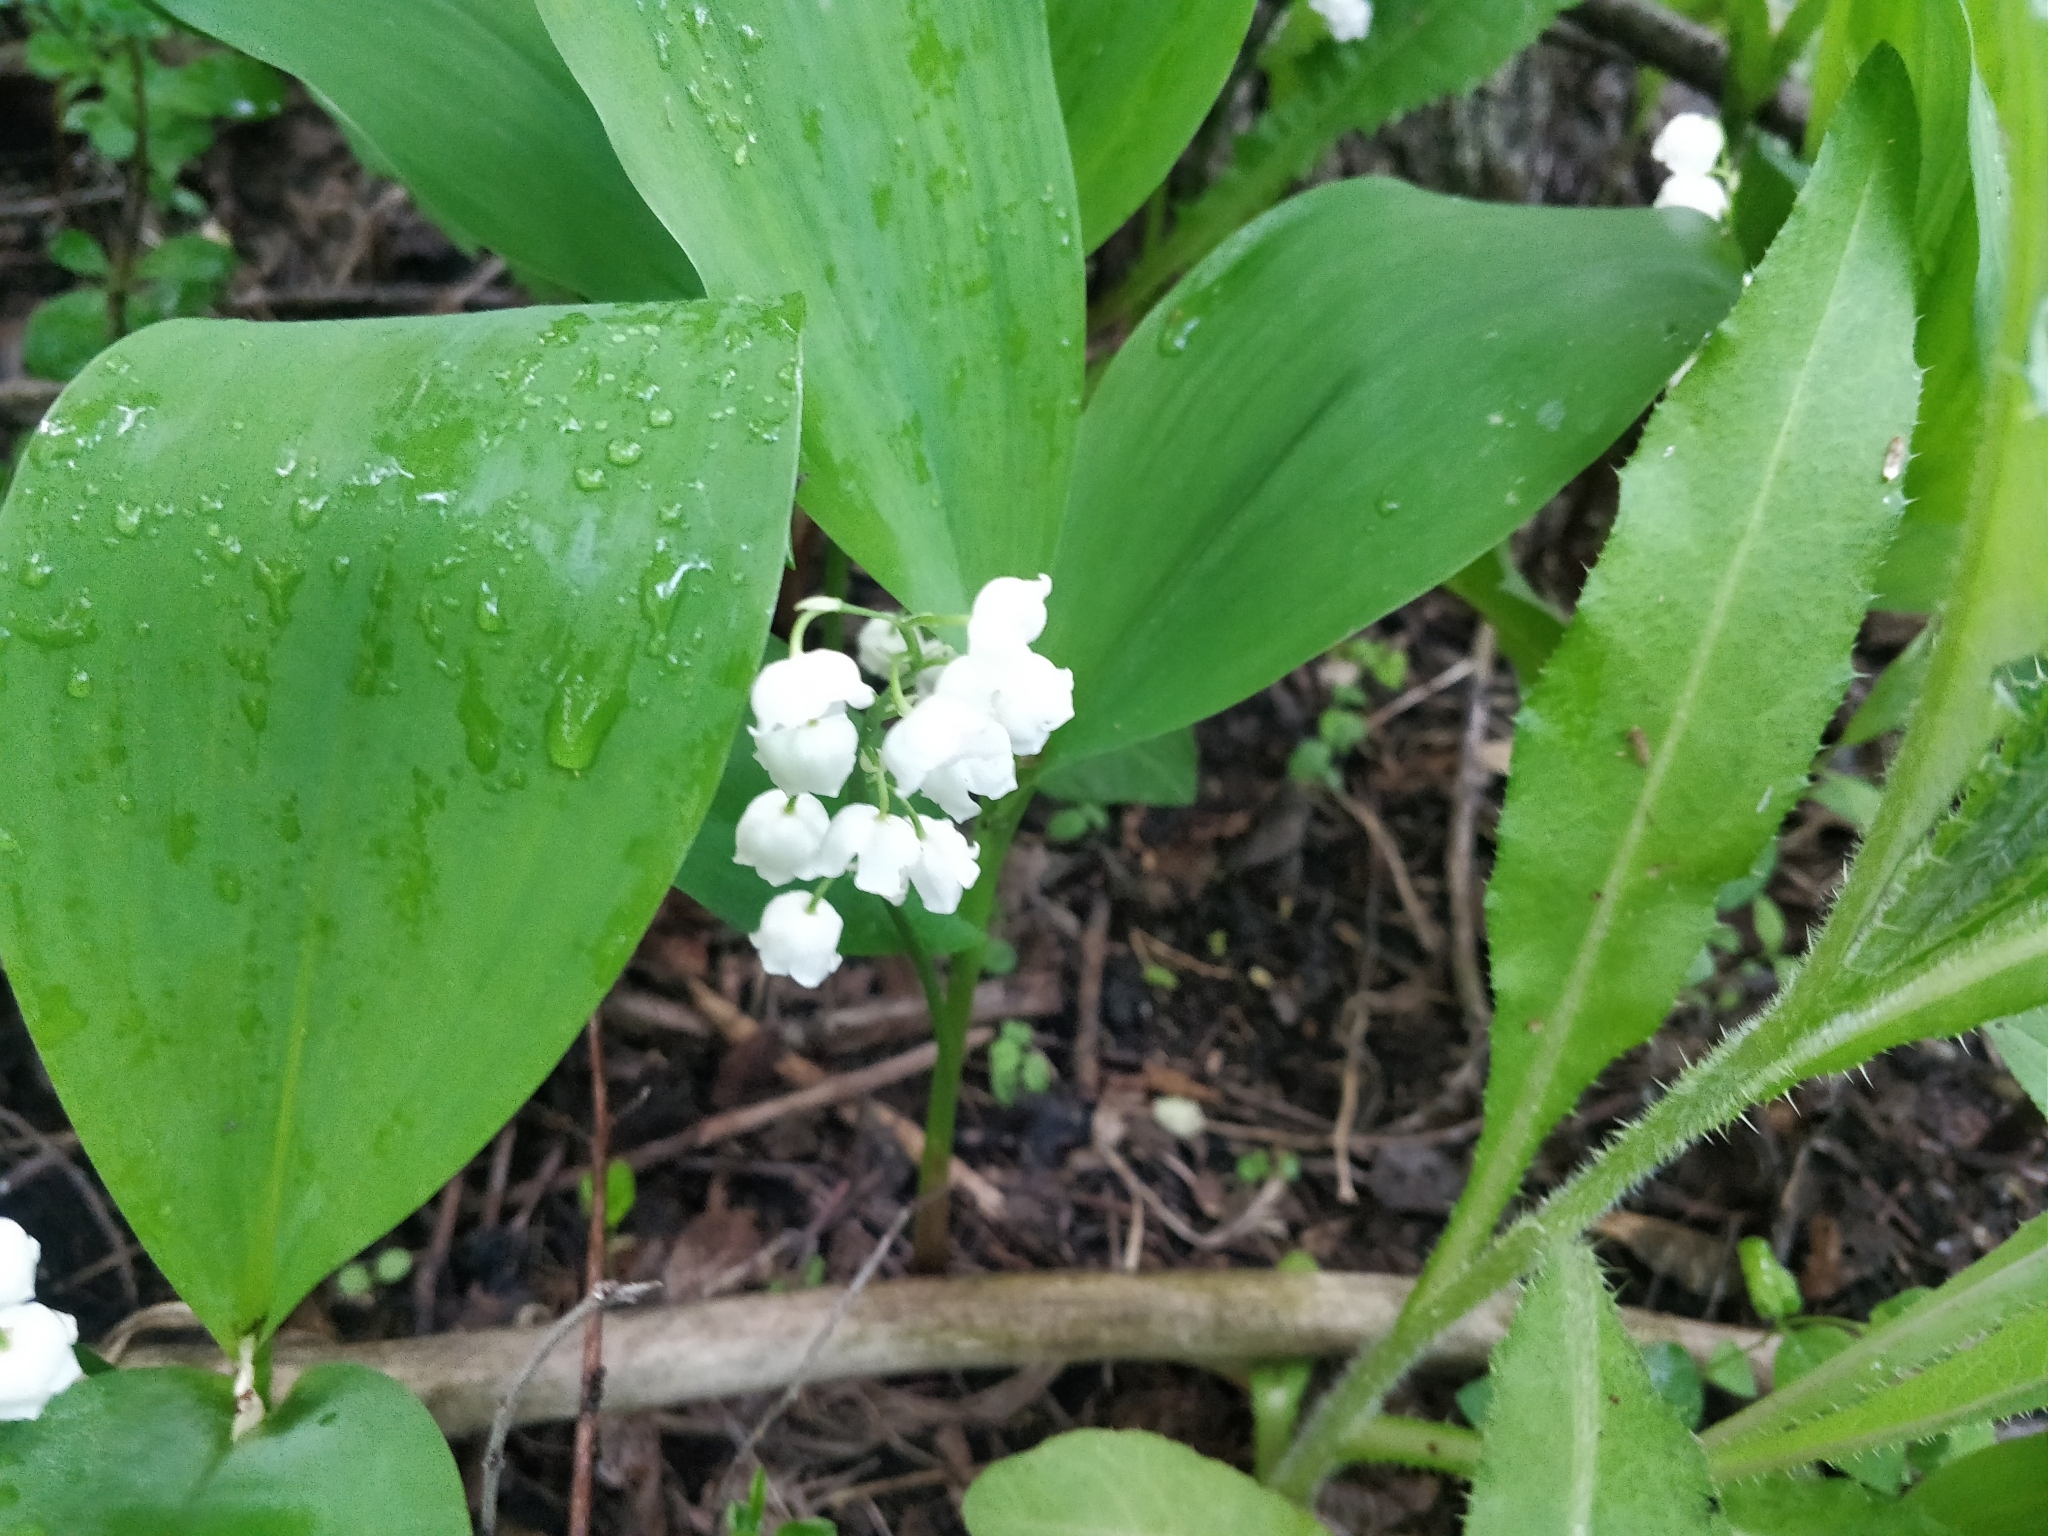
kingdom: Plantae
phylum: Tracheophyta
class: Liliopsida
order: Asparagales
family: Asparagaceae
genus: Convallaria
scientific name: Convallaria majalis
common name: Lily-of-the-valley
